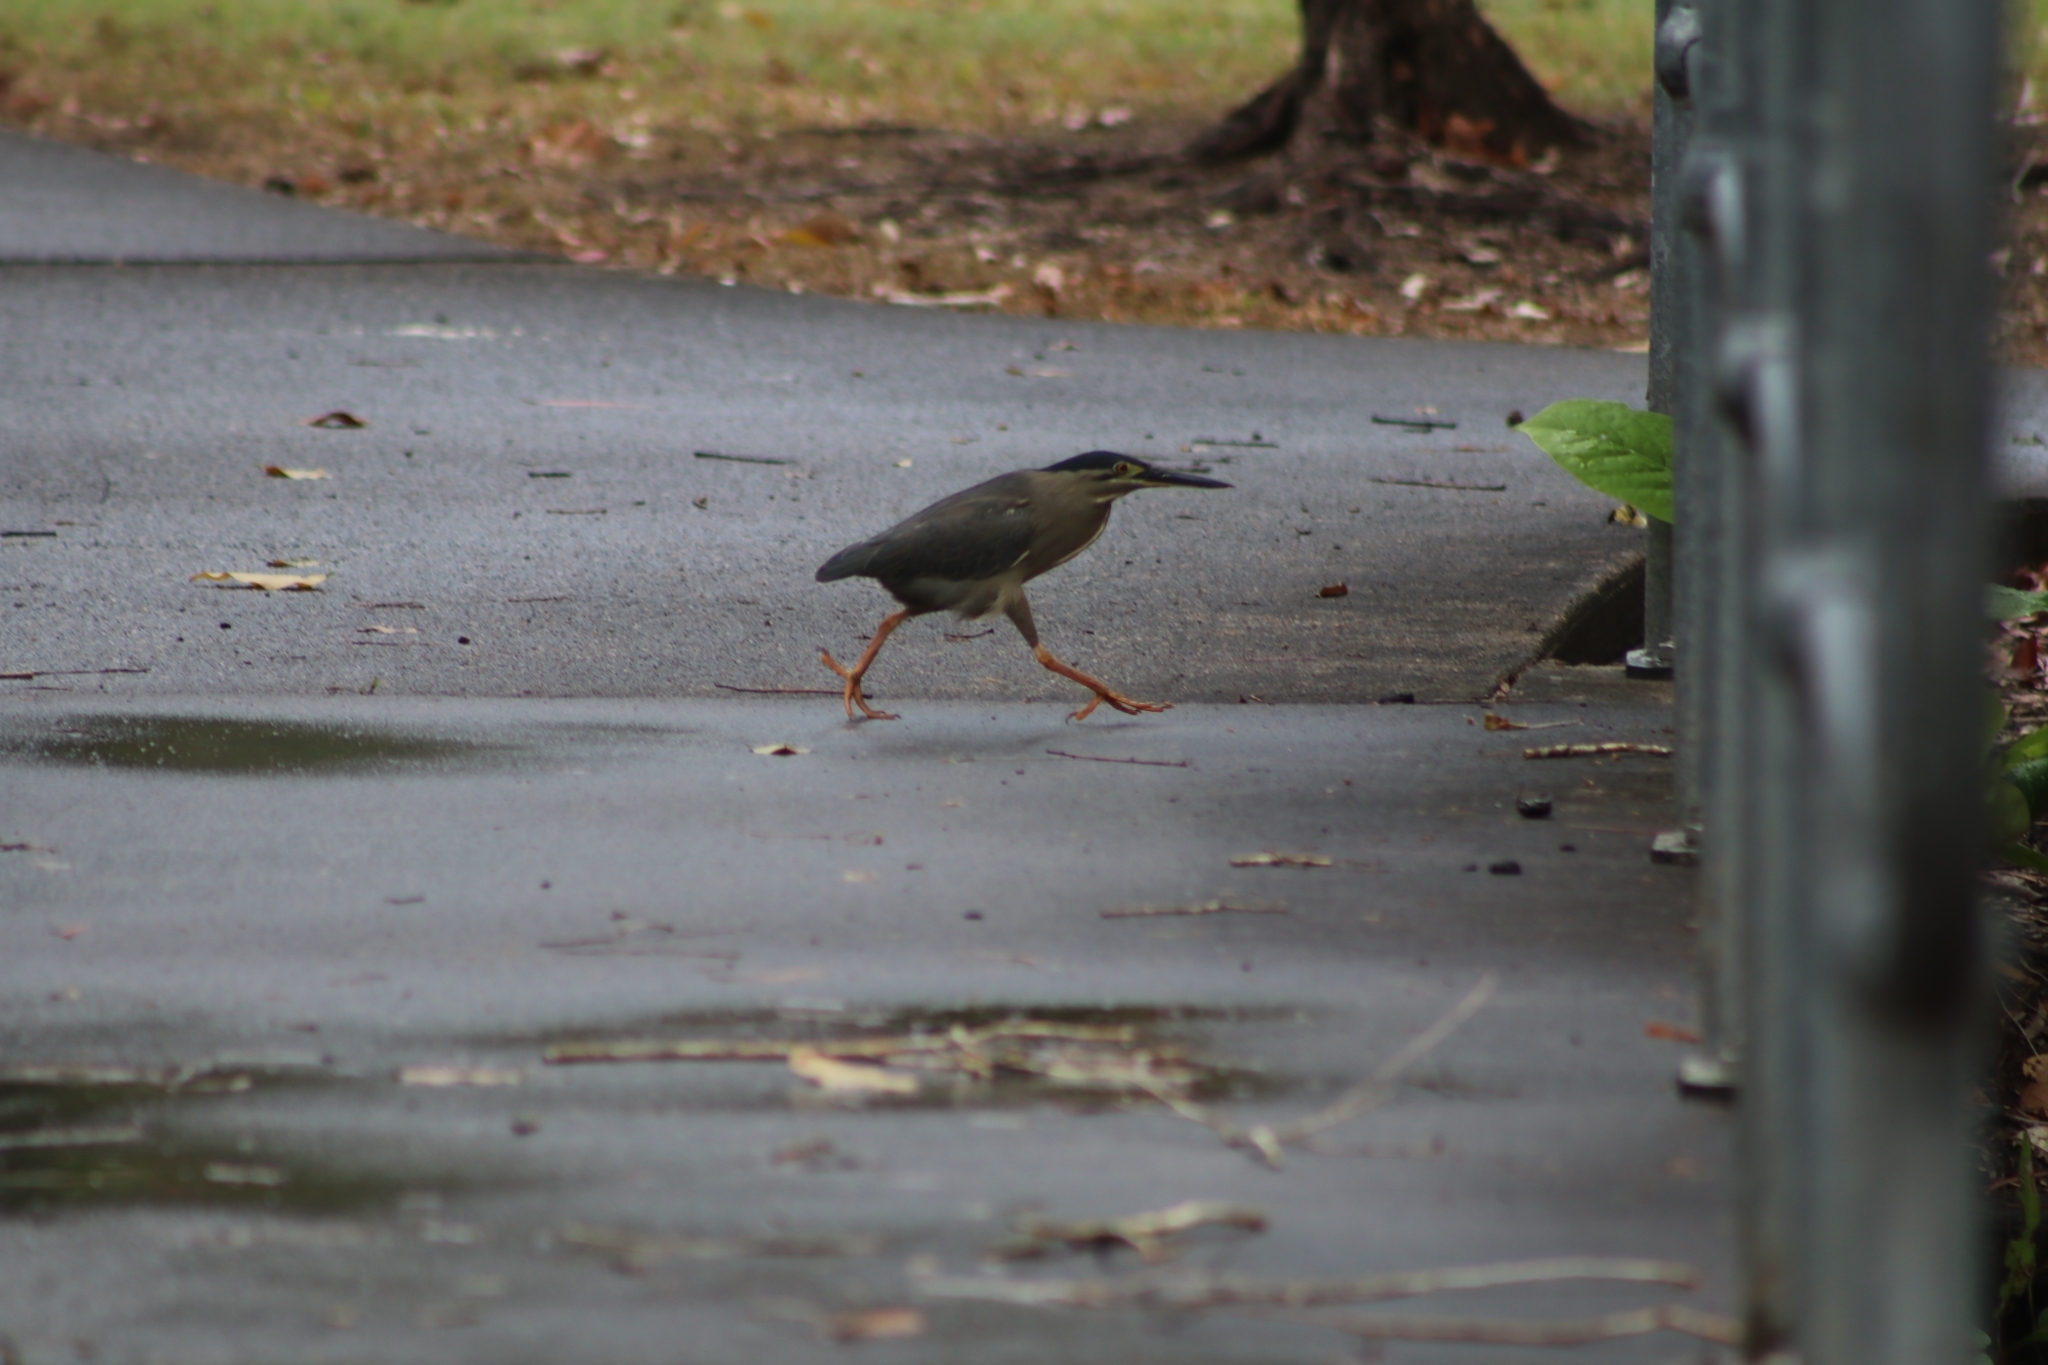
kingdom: Animalia
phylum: Chordata
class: Aves
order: Pelecaniformes
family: Ardeidae
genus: Butorides
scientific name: Butorides striata
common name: Striated heron
